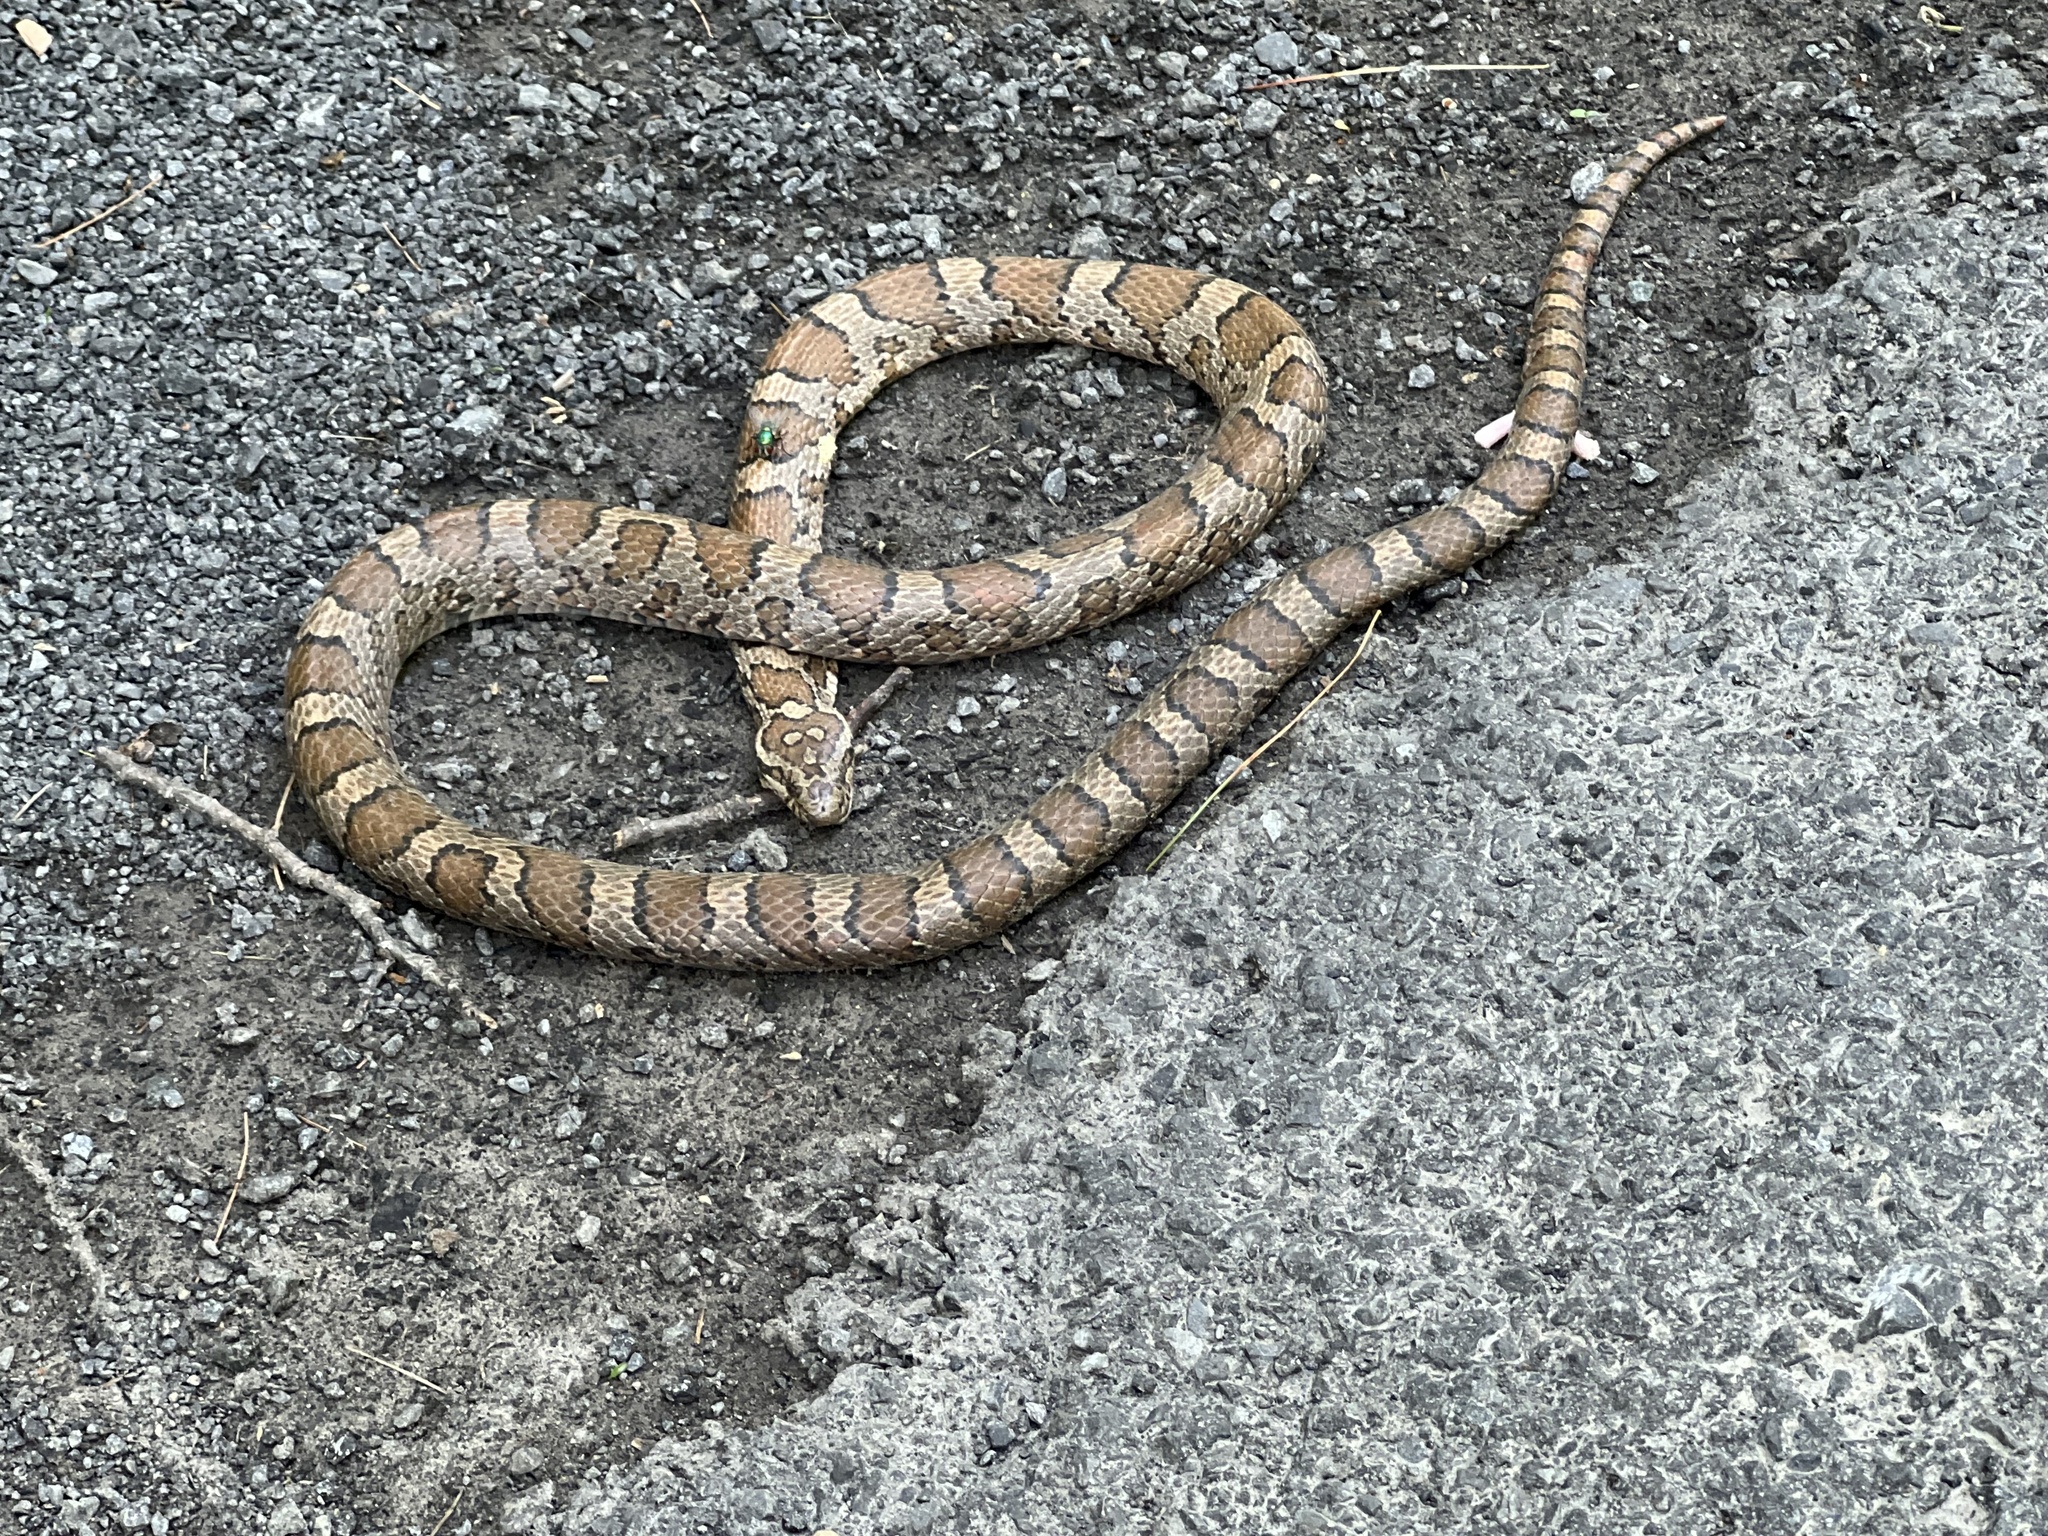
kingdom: Animalia
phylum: Chordata
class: Squamata
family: Colubridae
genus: Lampropeltis
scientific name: Lampropeltis triangulum
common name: Eastern milksnake
